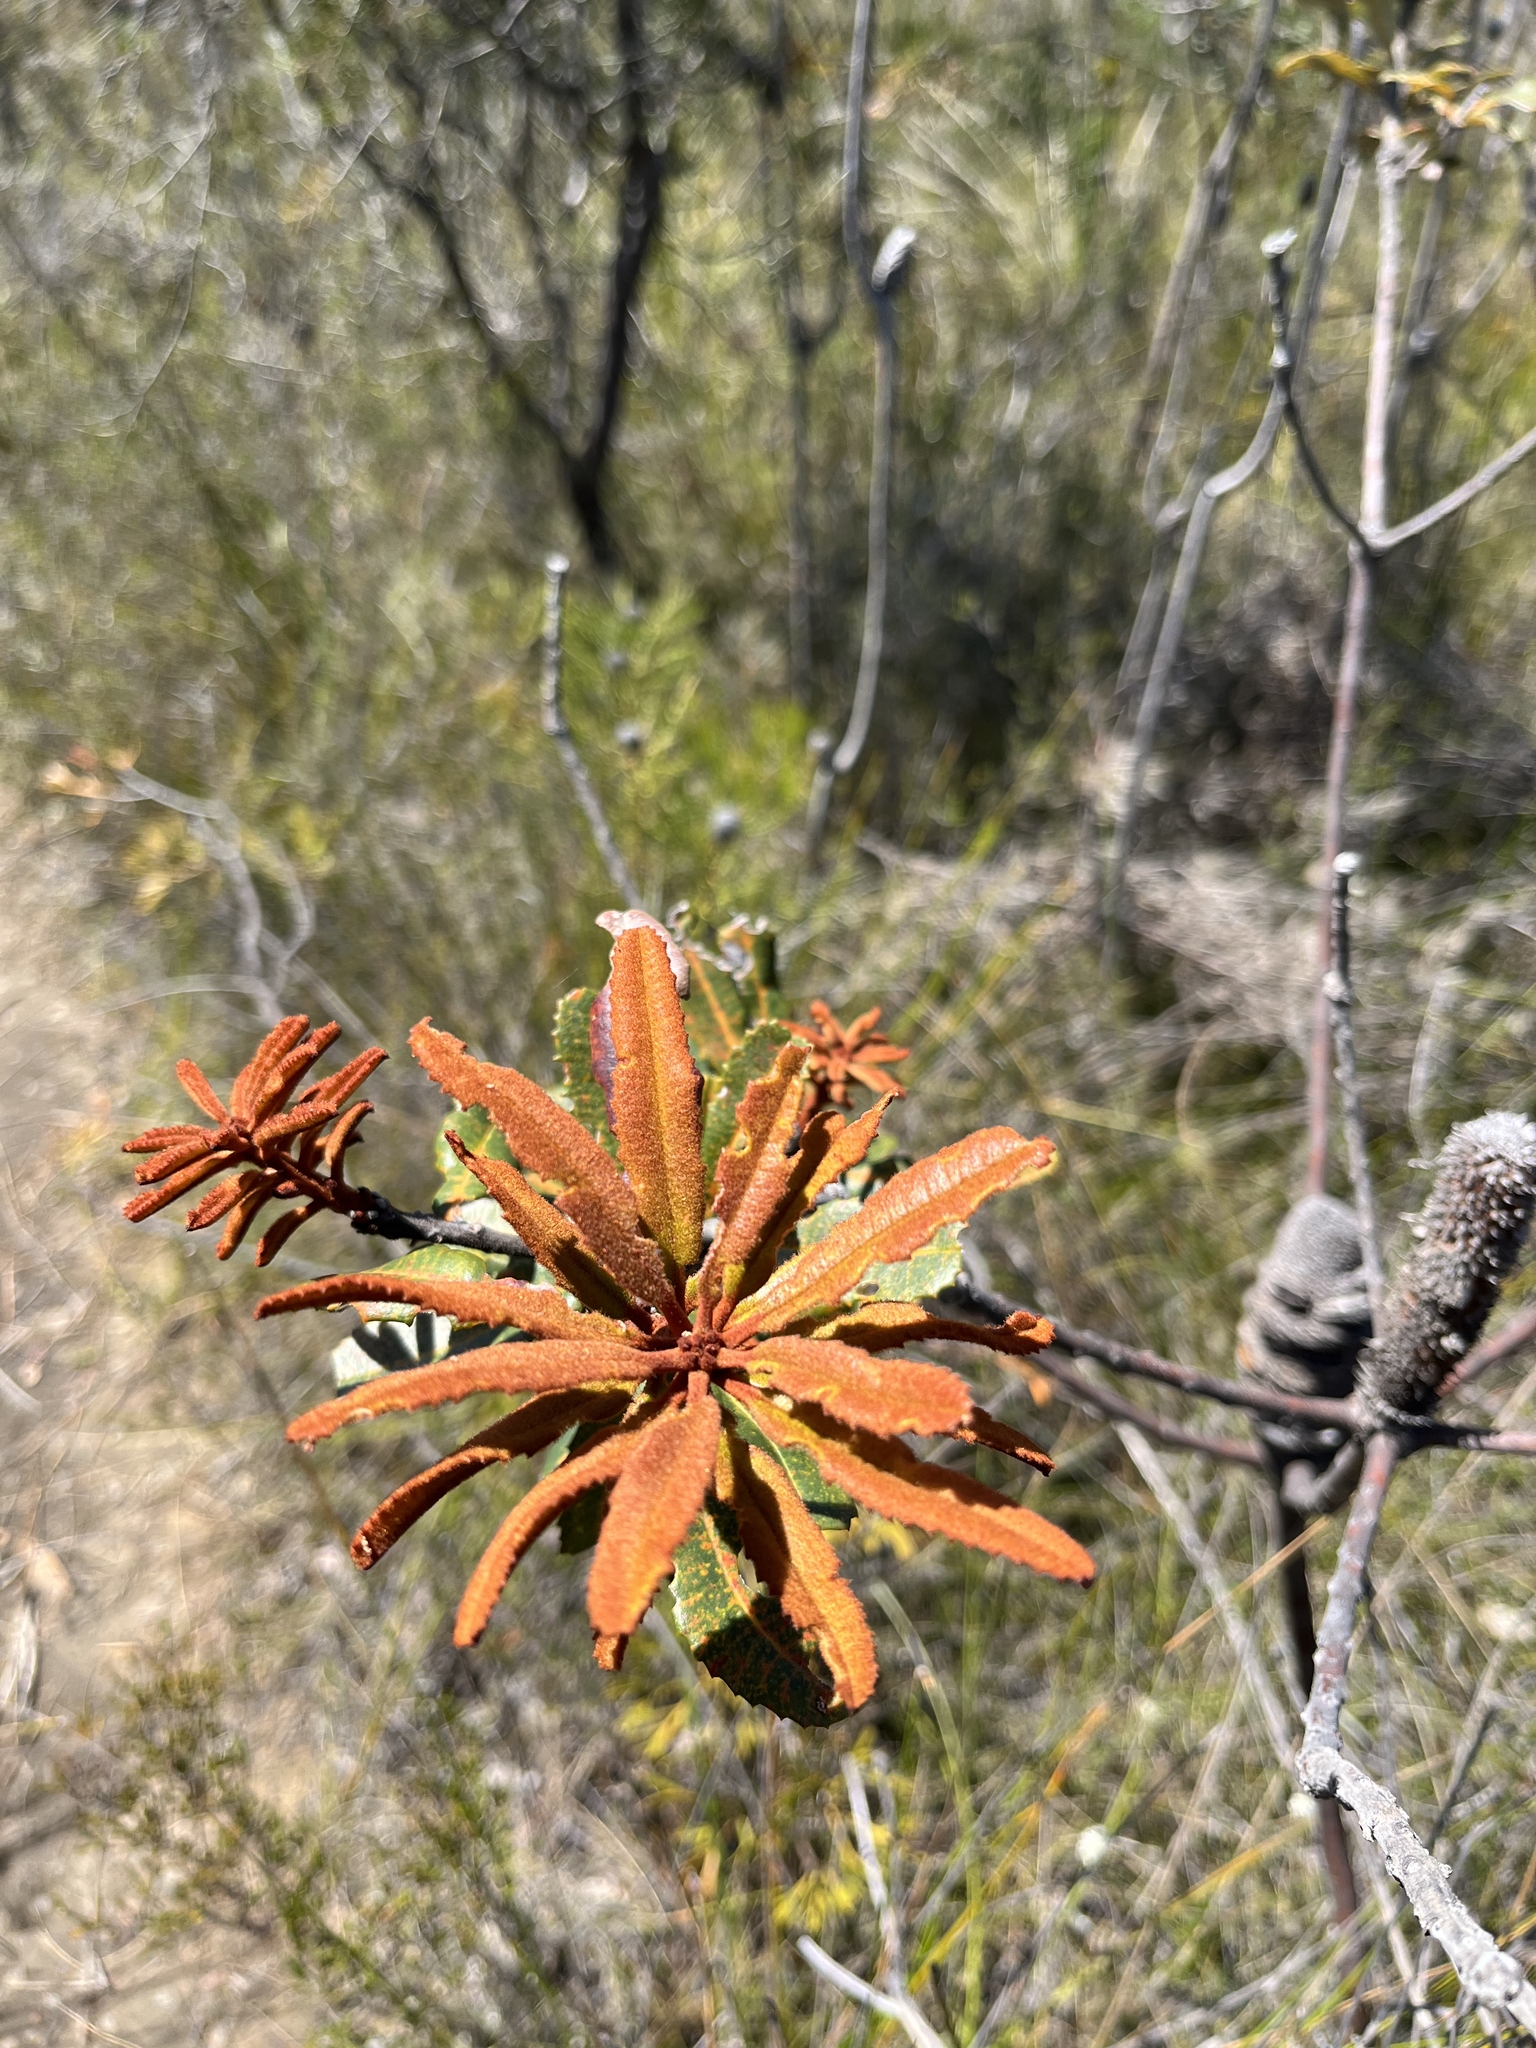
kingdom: Plantae
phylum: Tracheophyta
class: Magnoliopsida
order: Proteales
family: Proteaceae
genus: Banksia
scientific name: Banksia oblongifolia
